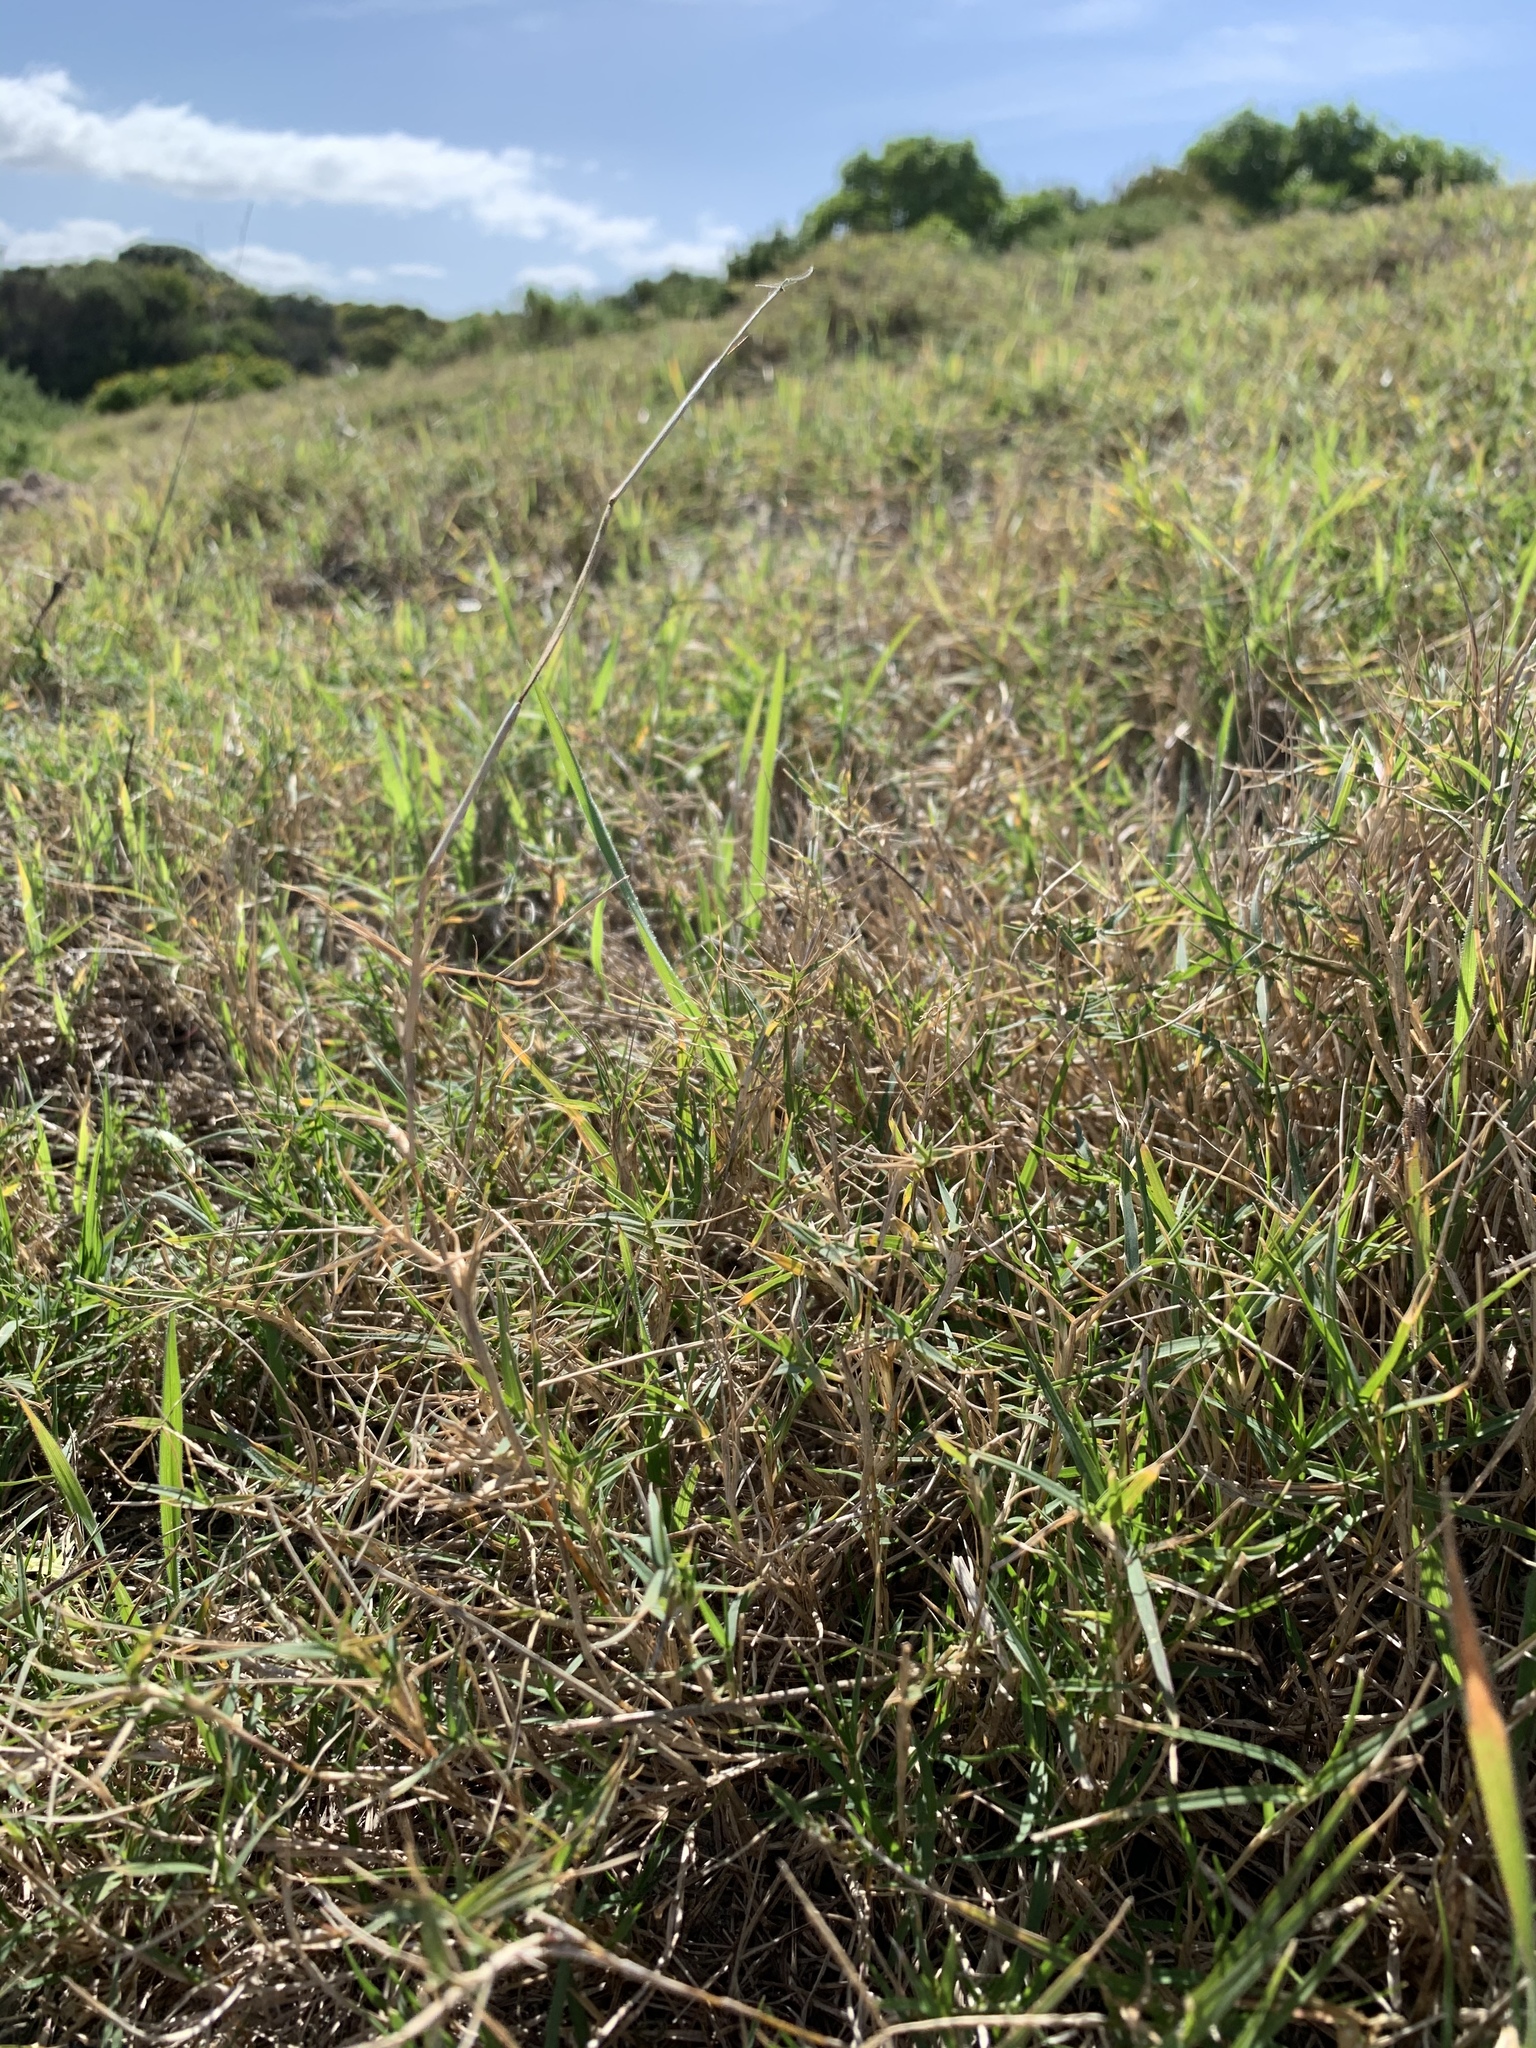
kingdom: Plantae
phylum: Tracheophyta
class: Liliopsida
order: Poales
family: Poaceae
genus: Cynodon
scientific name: Cynodon dactylon
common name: Bermuda grass
